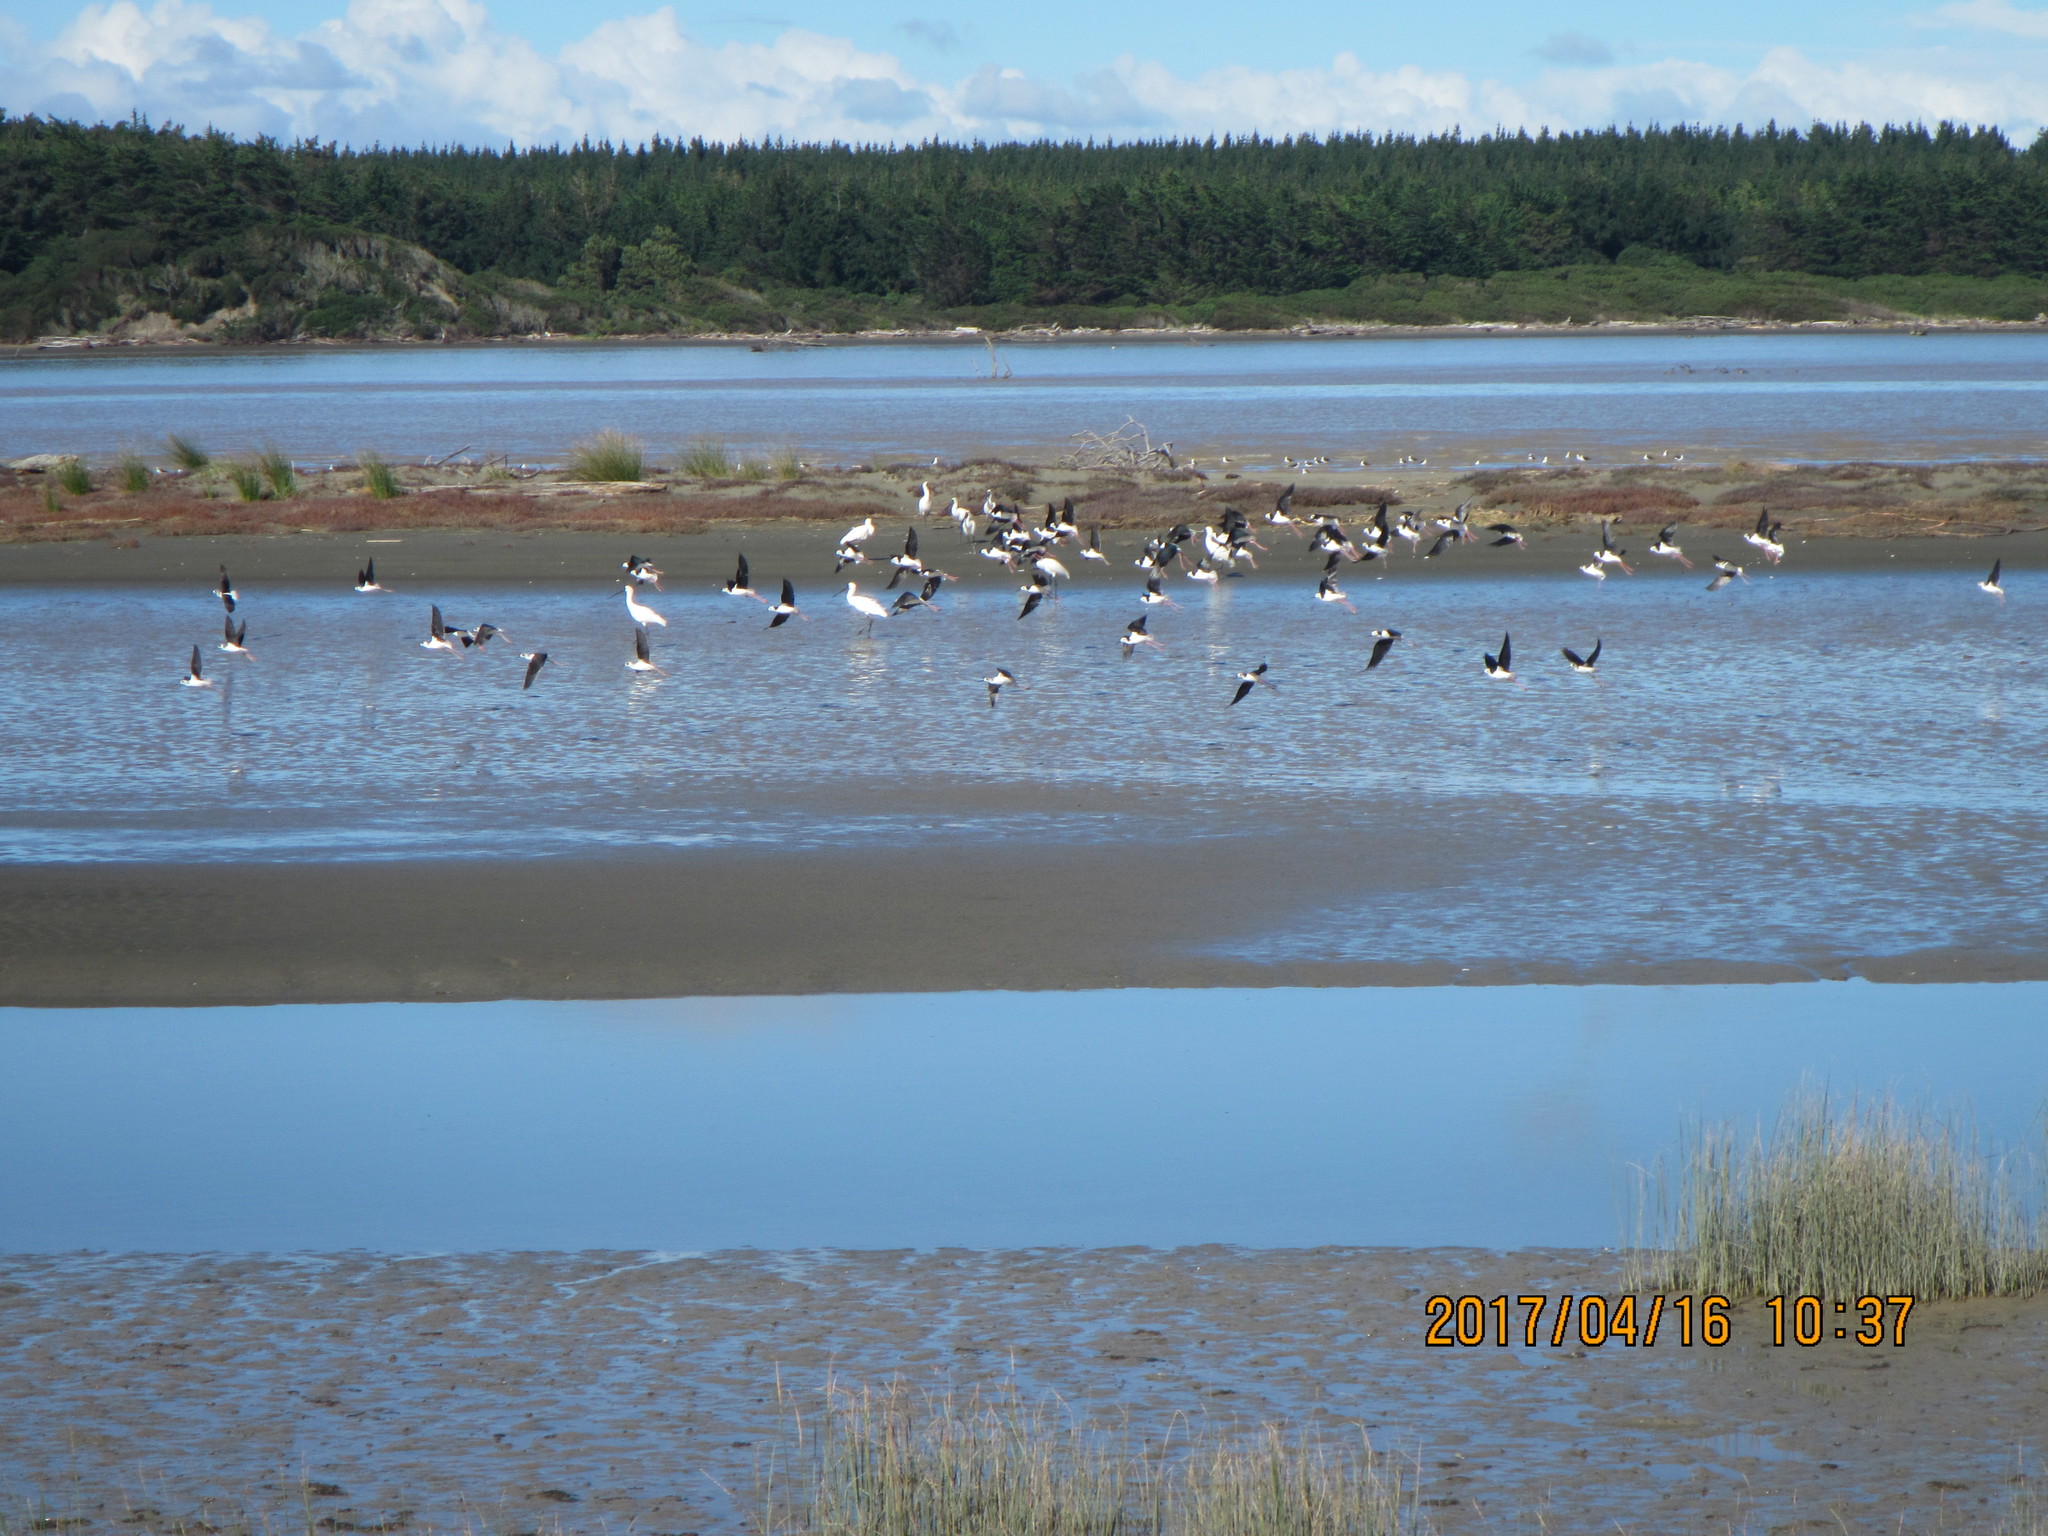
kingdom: Animalia
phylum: Chordata
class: Aves
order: Charadriiformes
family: Recurvirostridae
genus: Himantopus
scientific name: Himantopus leucocephalus
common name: White-headed stilt
